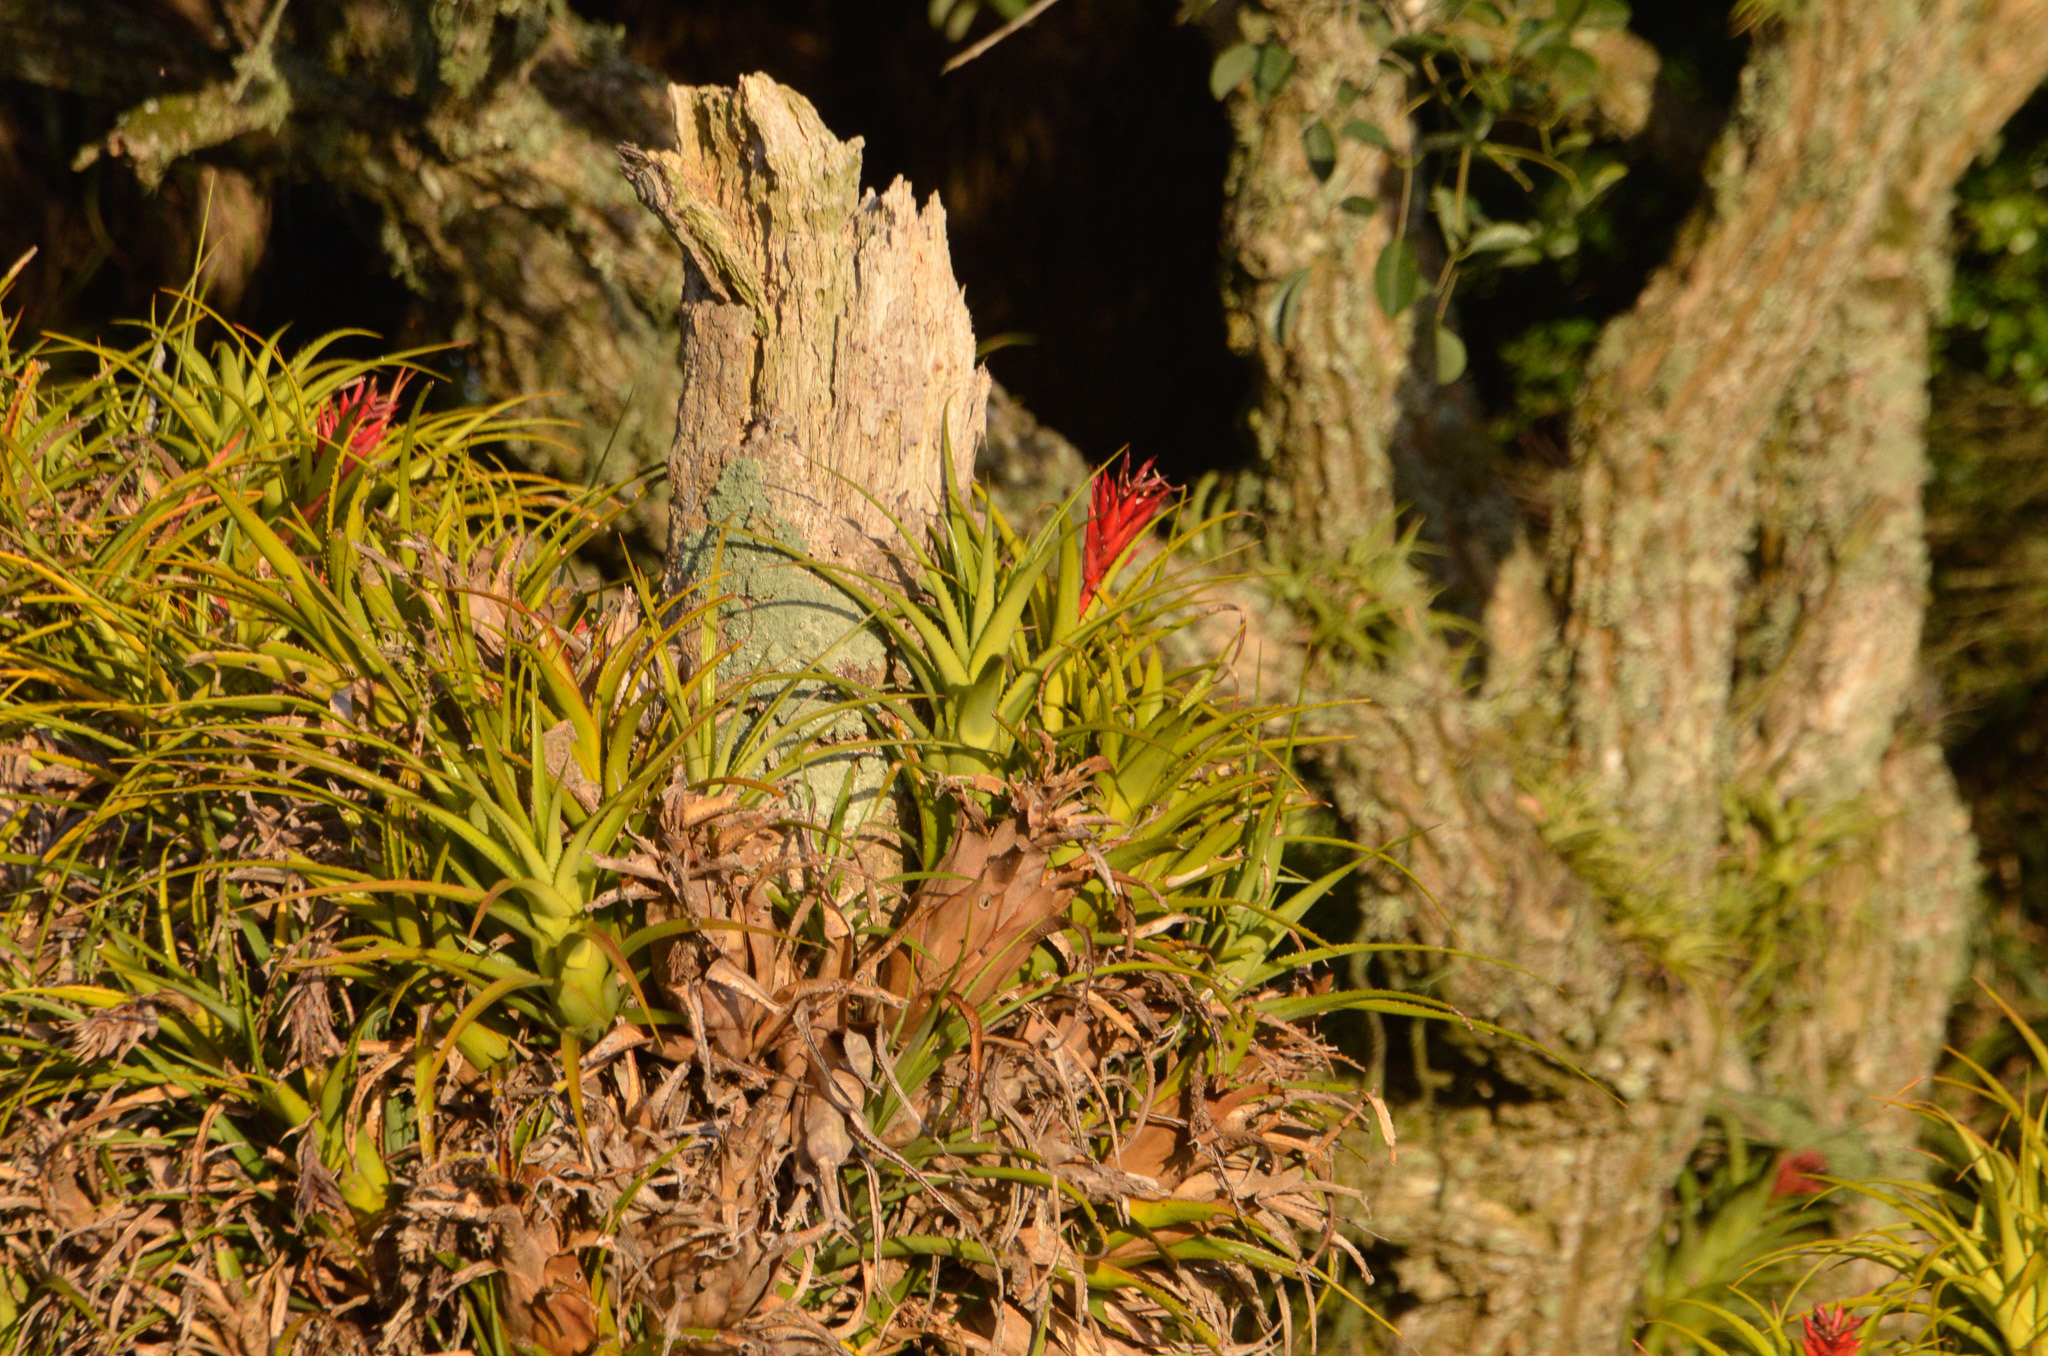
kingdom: Plantae
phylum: Tracheophyta
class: Liliopsida
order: Poales
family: Bromeliaceae
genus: Aechmea
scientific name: Aechmea recurvata
